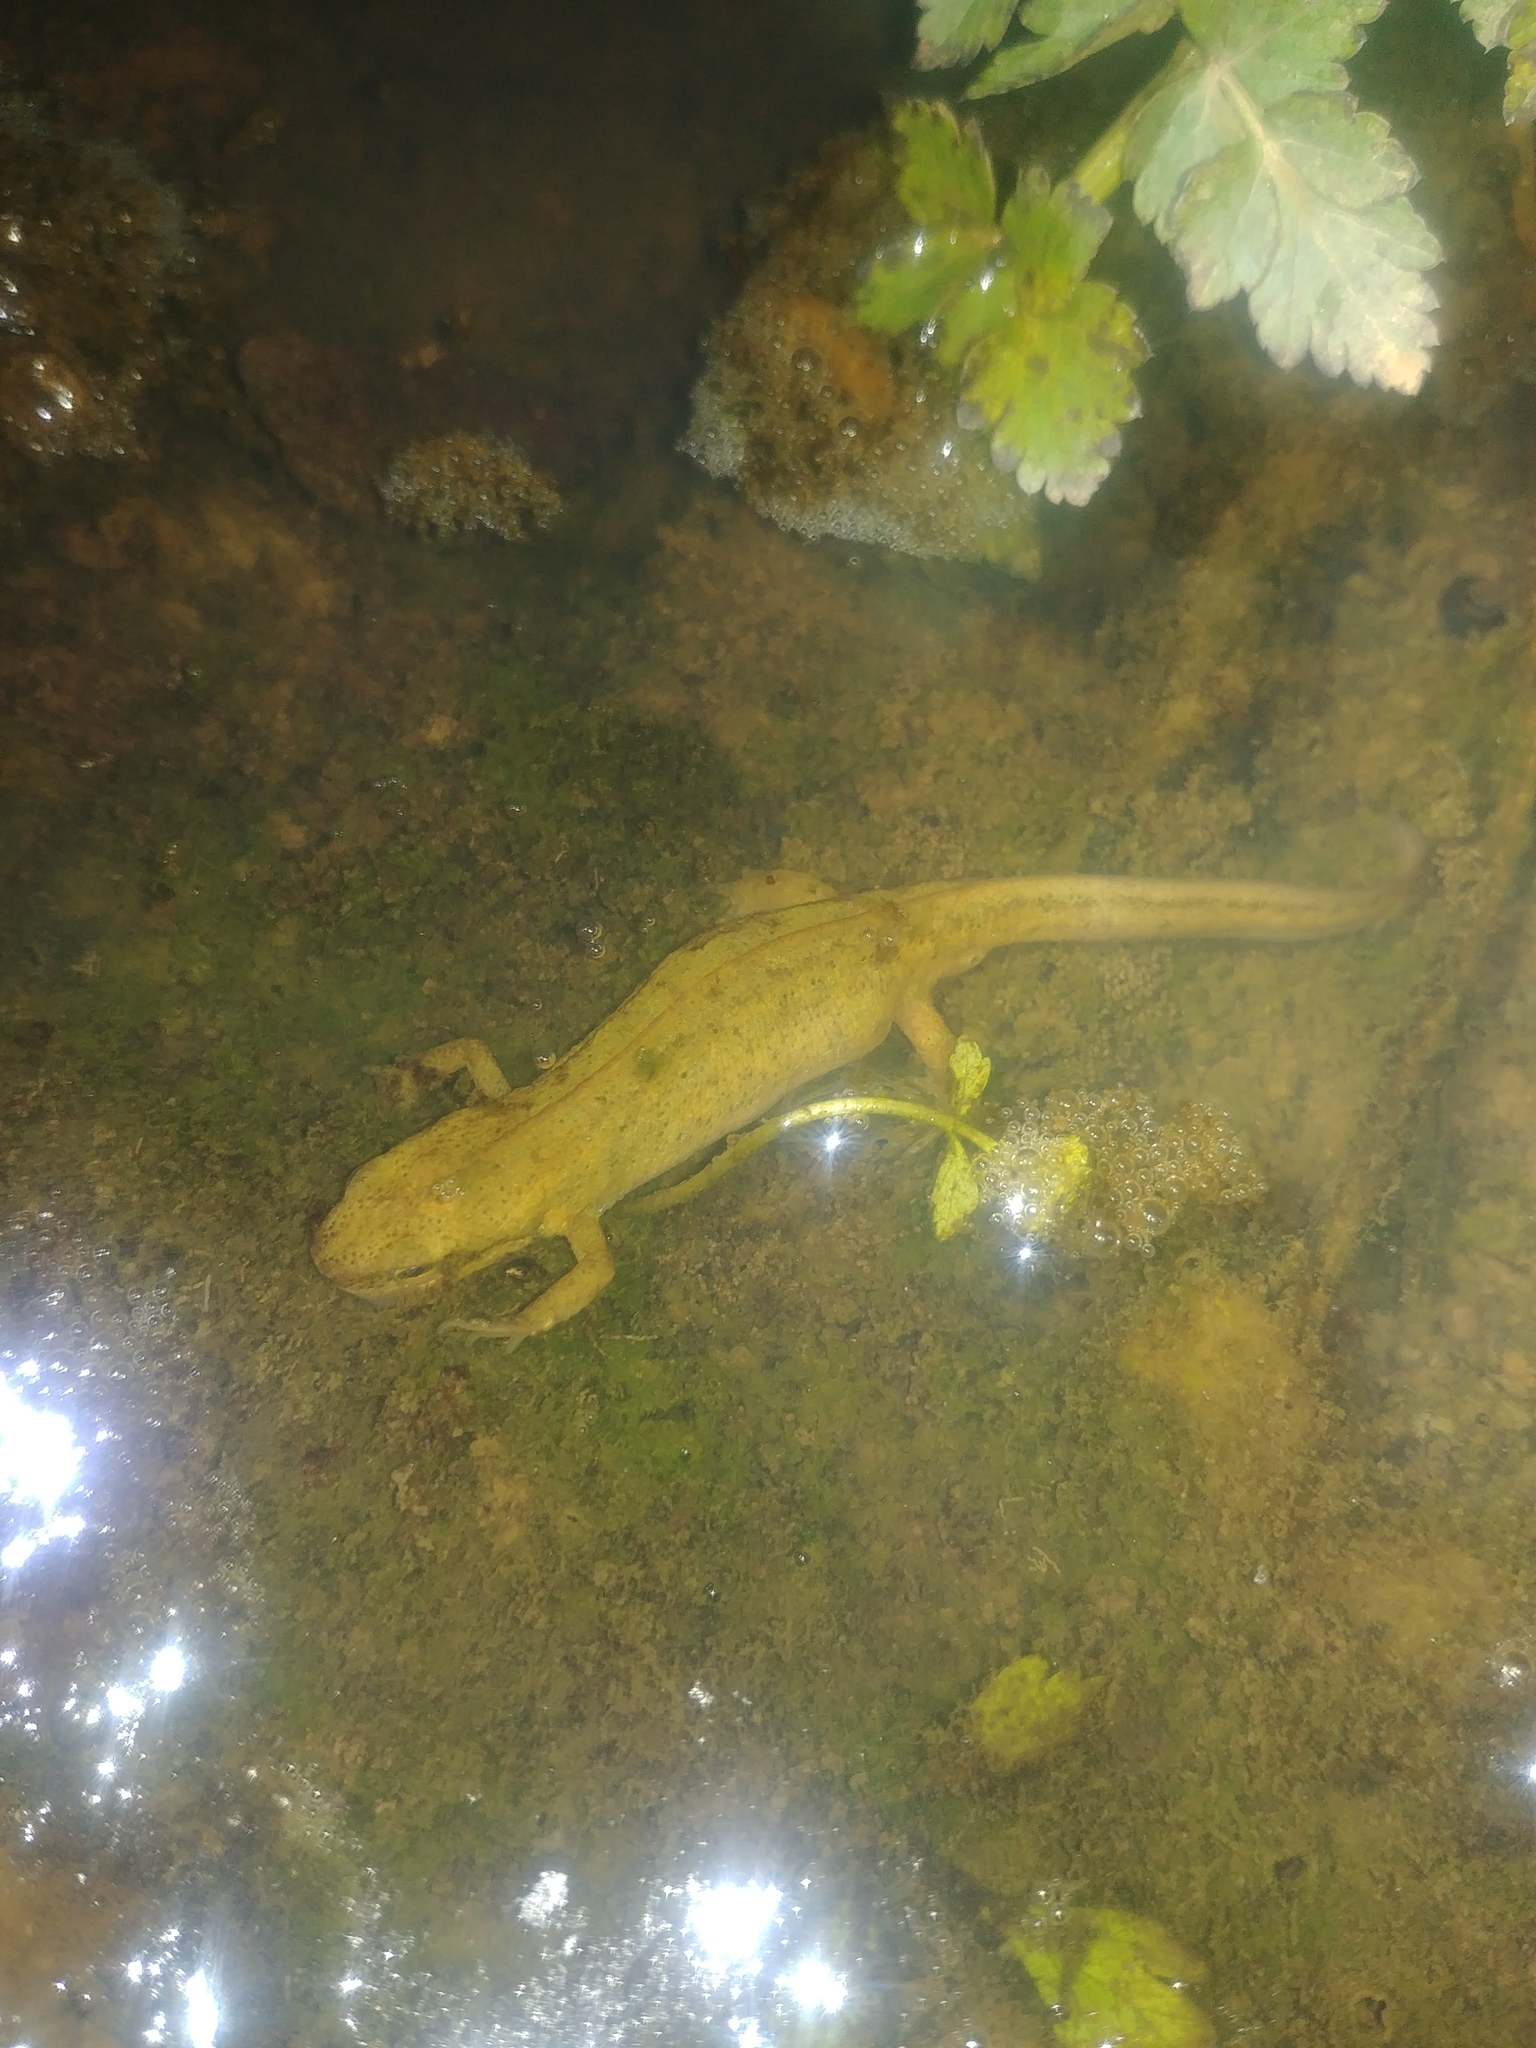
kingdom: Animalia
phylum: Chordata
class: Amphibia
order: Caudata
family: Salamandridae
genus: Lissotriton
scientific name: Lissotriton helveticus
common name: Palmate newt
